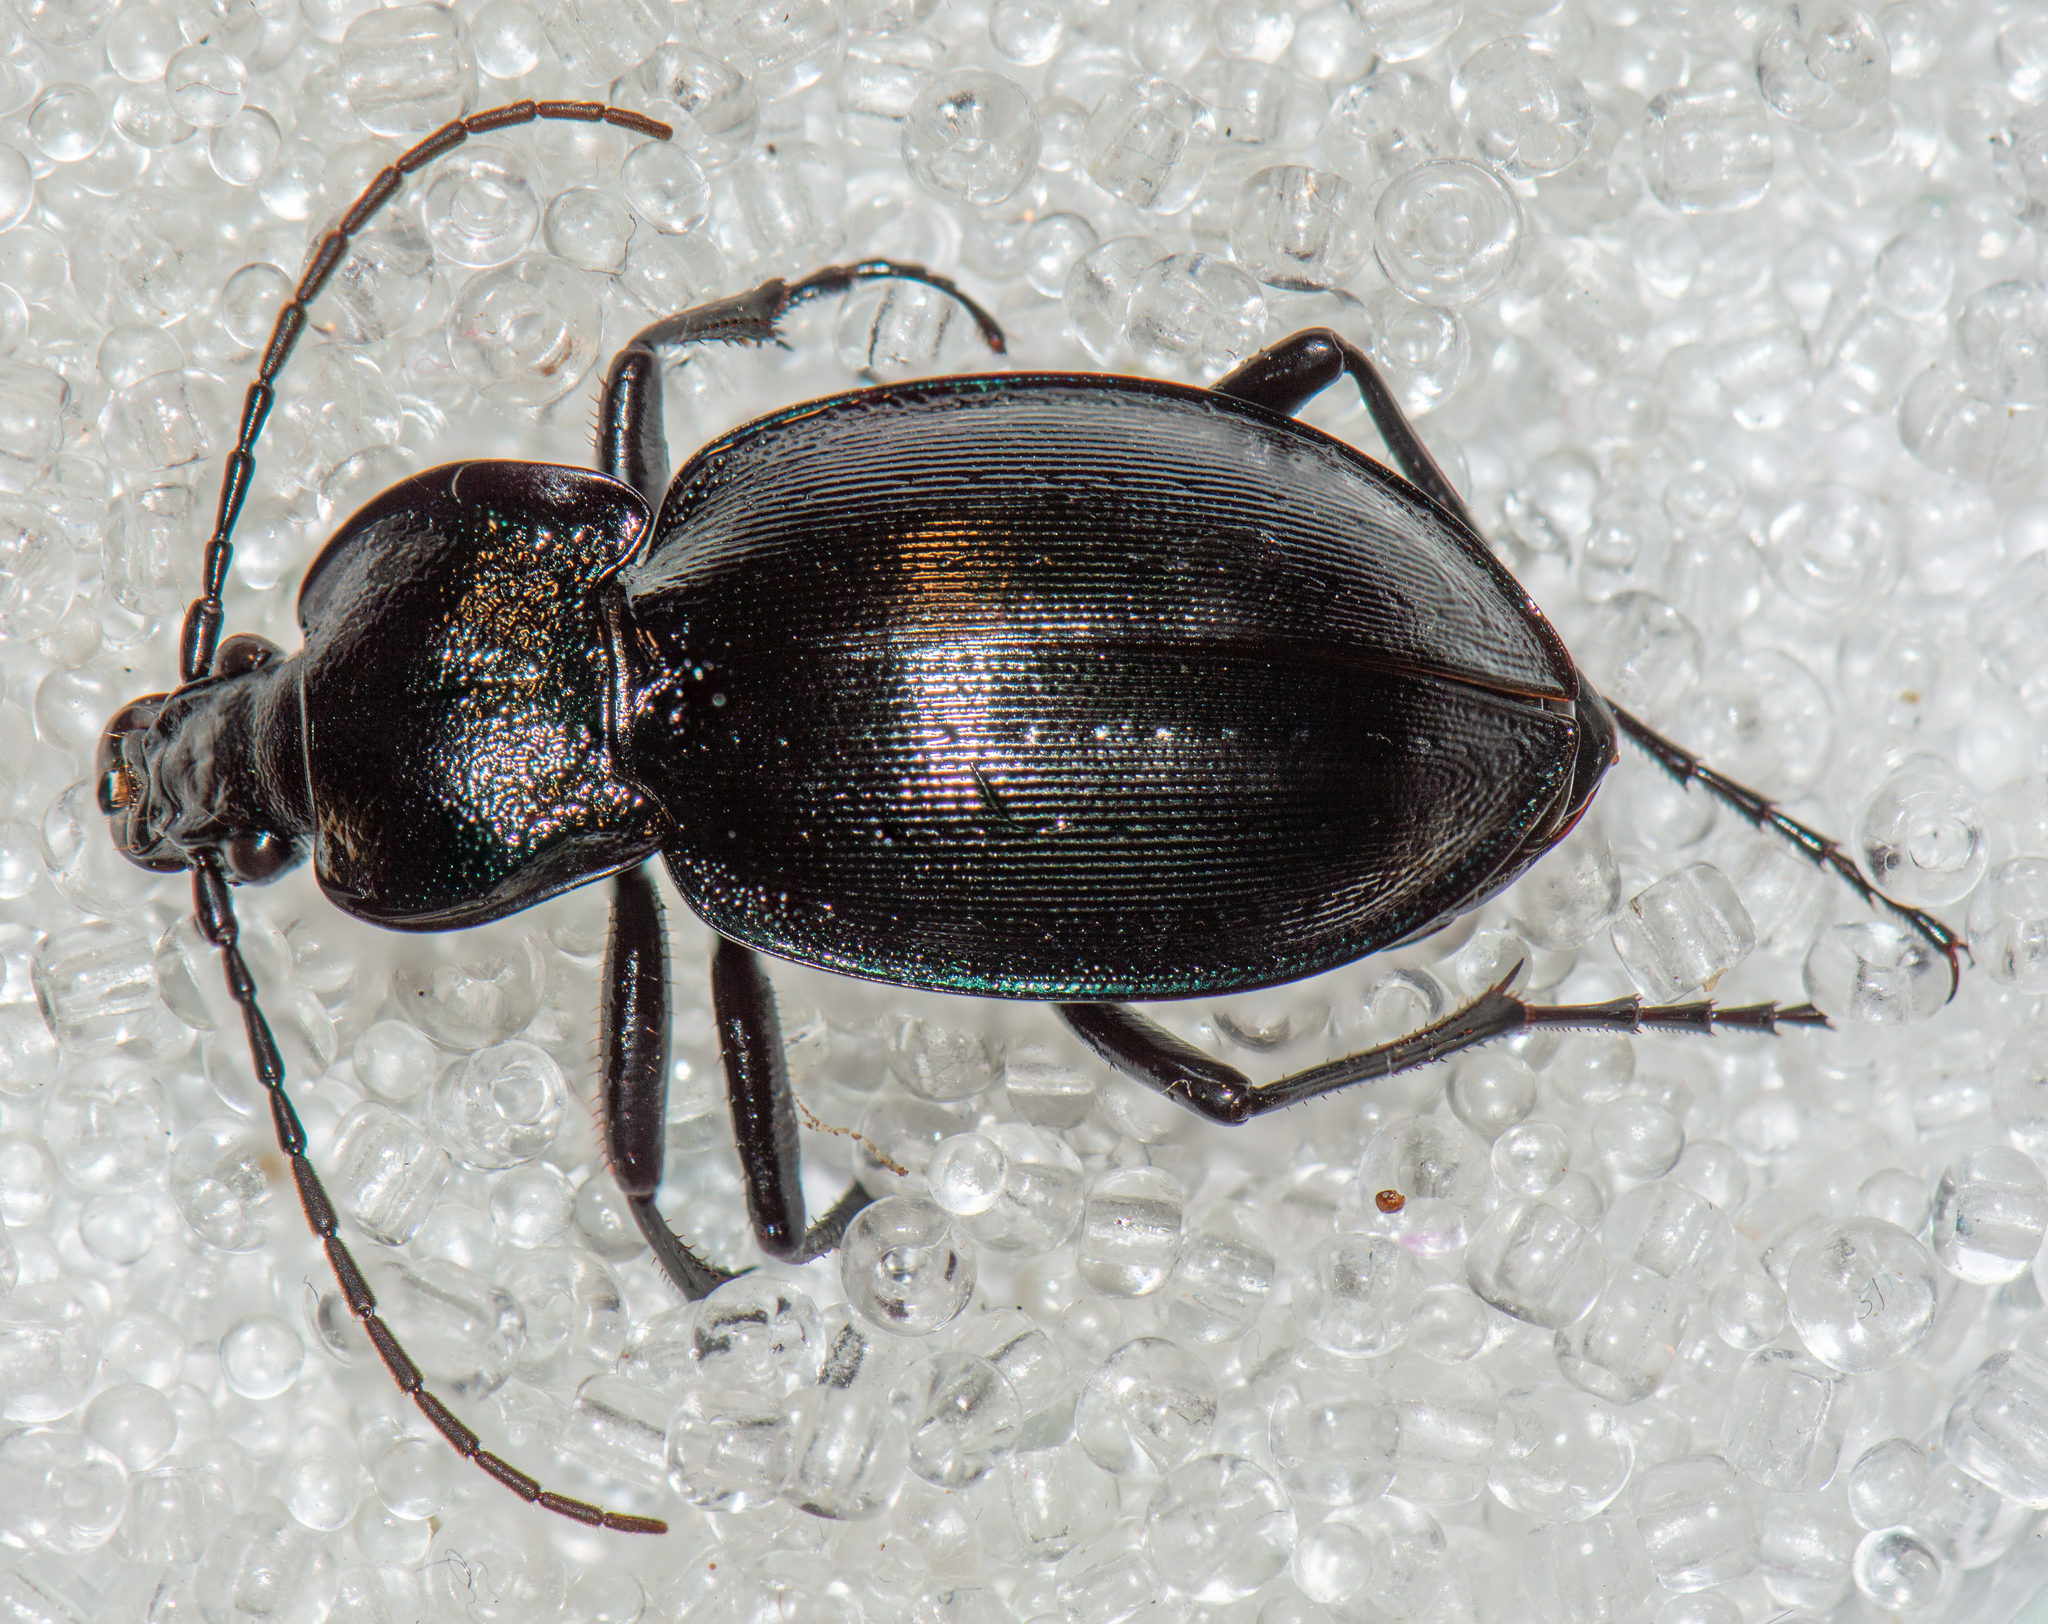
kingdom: Animalia
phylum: Arthropoda
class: Insecta
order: Coleoptera
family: Carabidae
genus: Carabus
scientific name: Carabus neumeyeri
